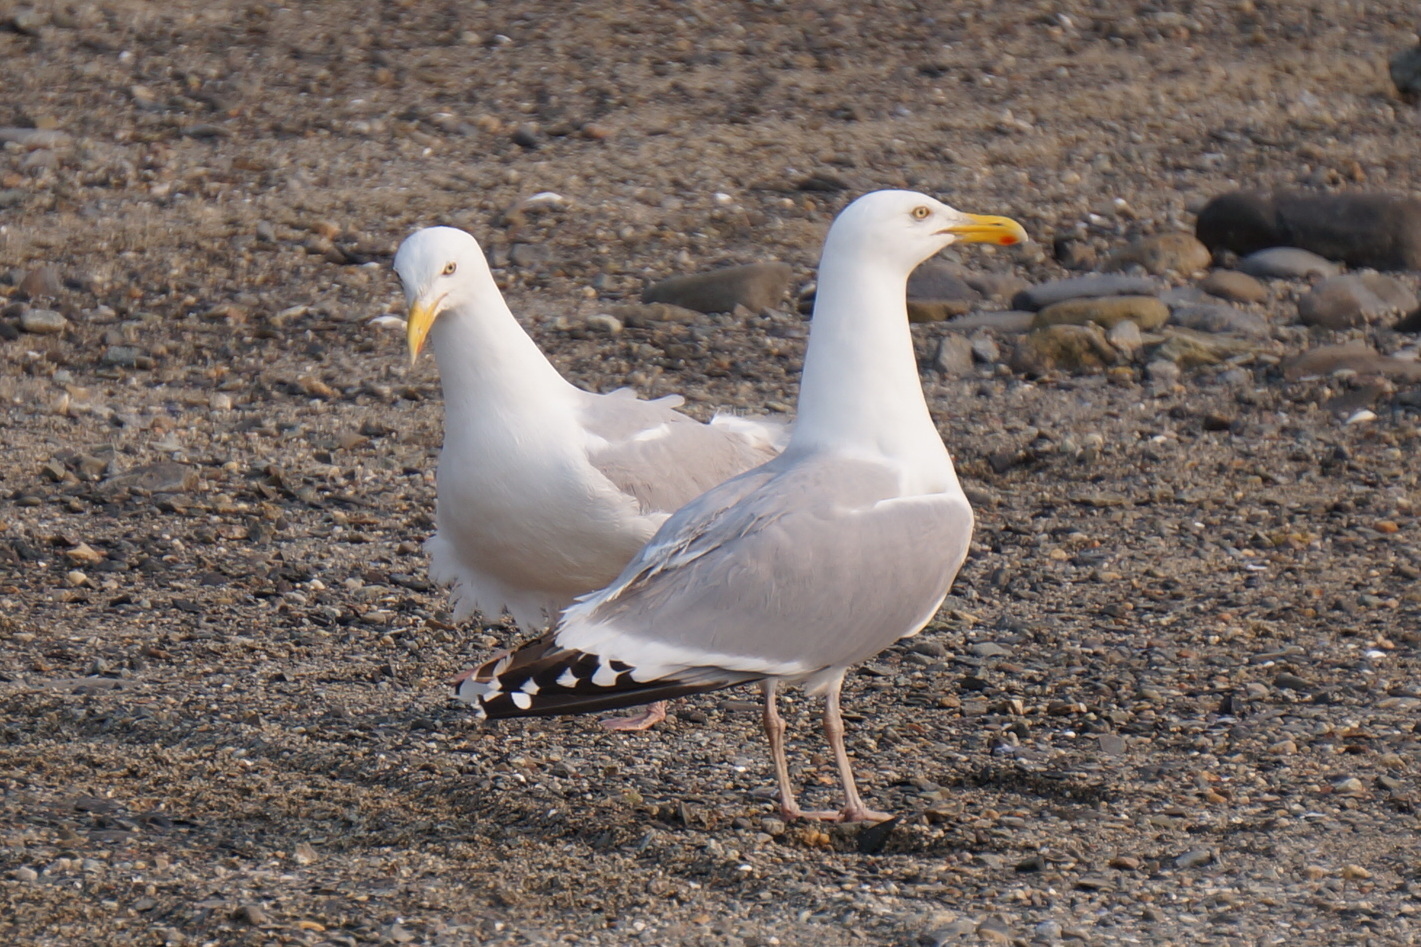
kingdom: Animalia
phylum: Chordata
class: Aves
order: Charadriiformes
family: Laridae
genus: Larus
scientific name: Larus argentatus
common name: Herring gull
